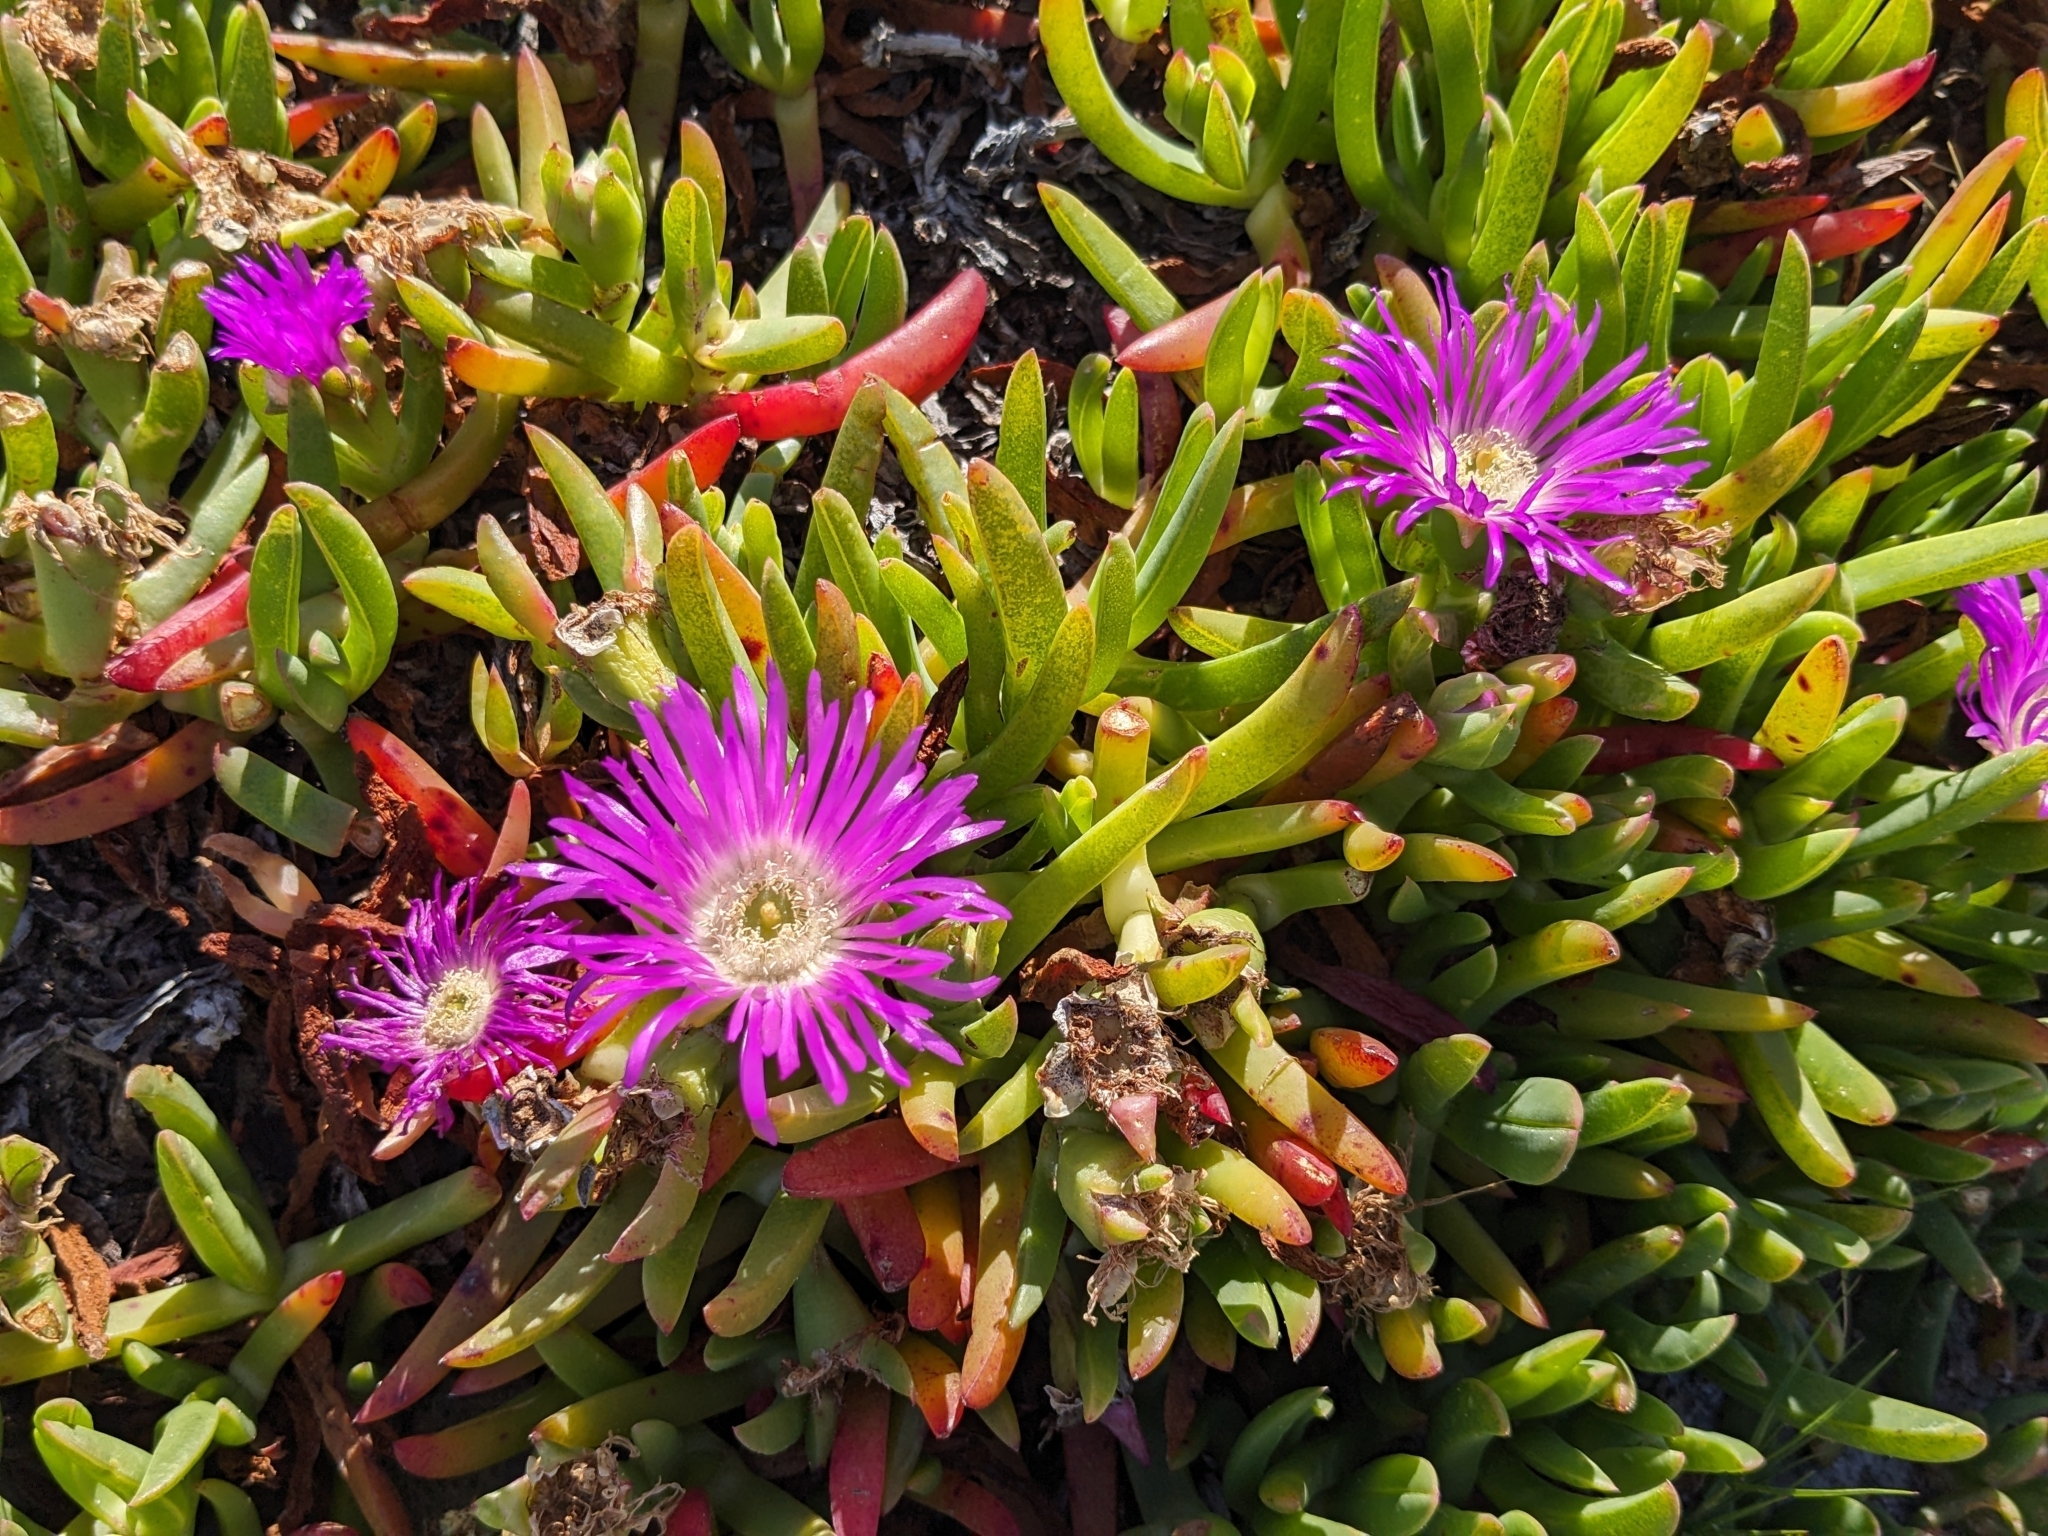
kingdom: Plantae
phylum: Tracheophyta
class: Magnoliopsida
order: Caryophyllales
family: Aizoaceae
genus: Carpobrotus
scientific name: Carpobrotus rossii
